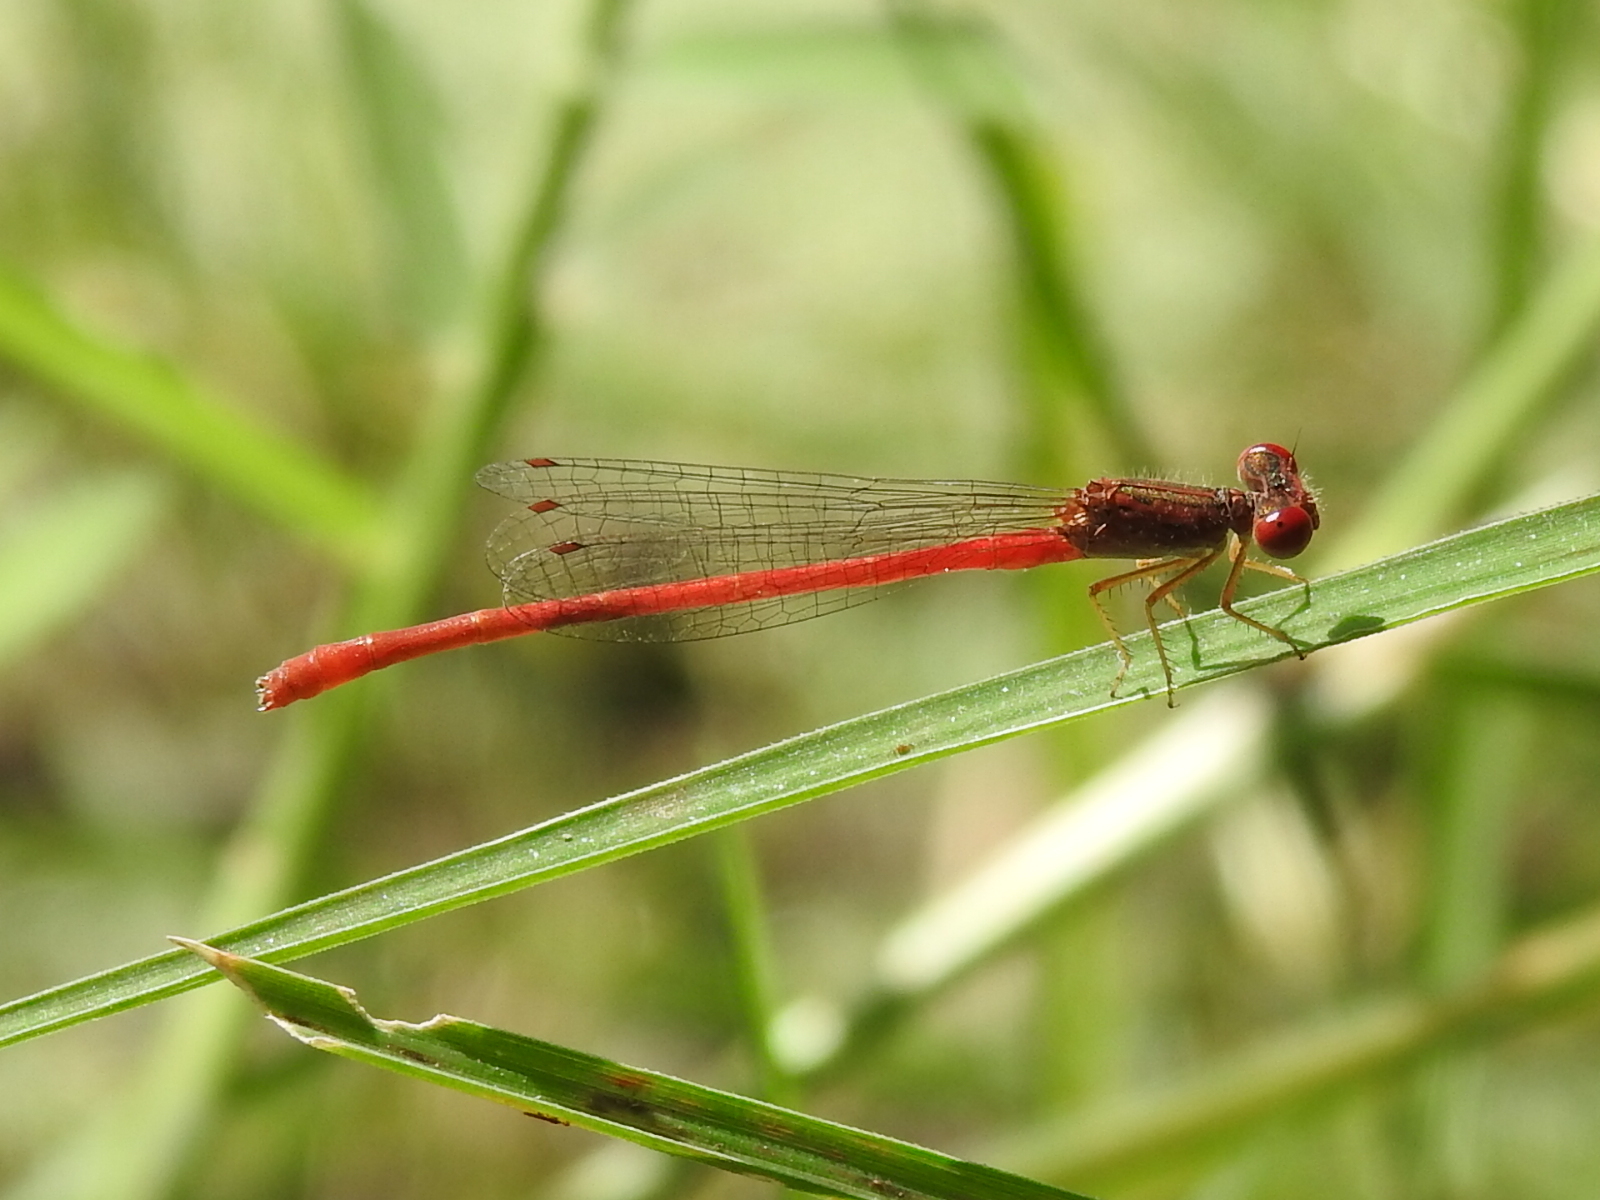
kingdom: Animalia
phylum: Arthropoda
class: Insecta
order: Odonata
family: Coenagrionidae
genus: Telebasis
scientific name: Telebasis salva
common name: Desert firetail
